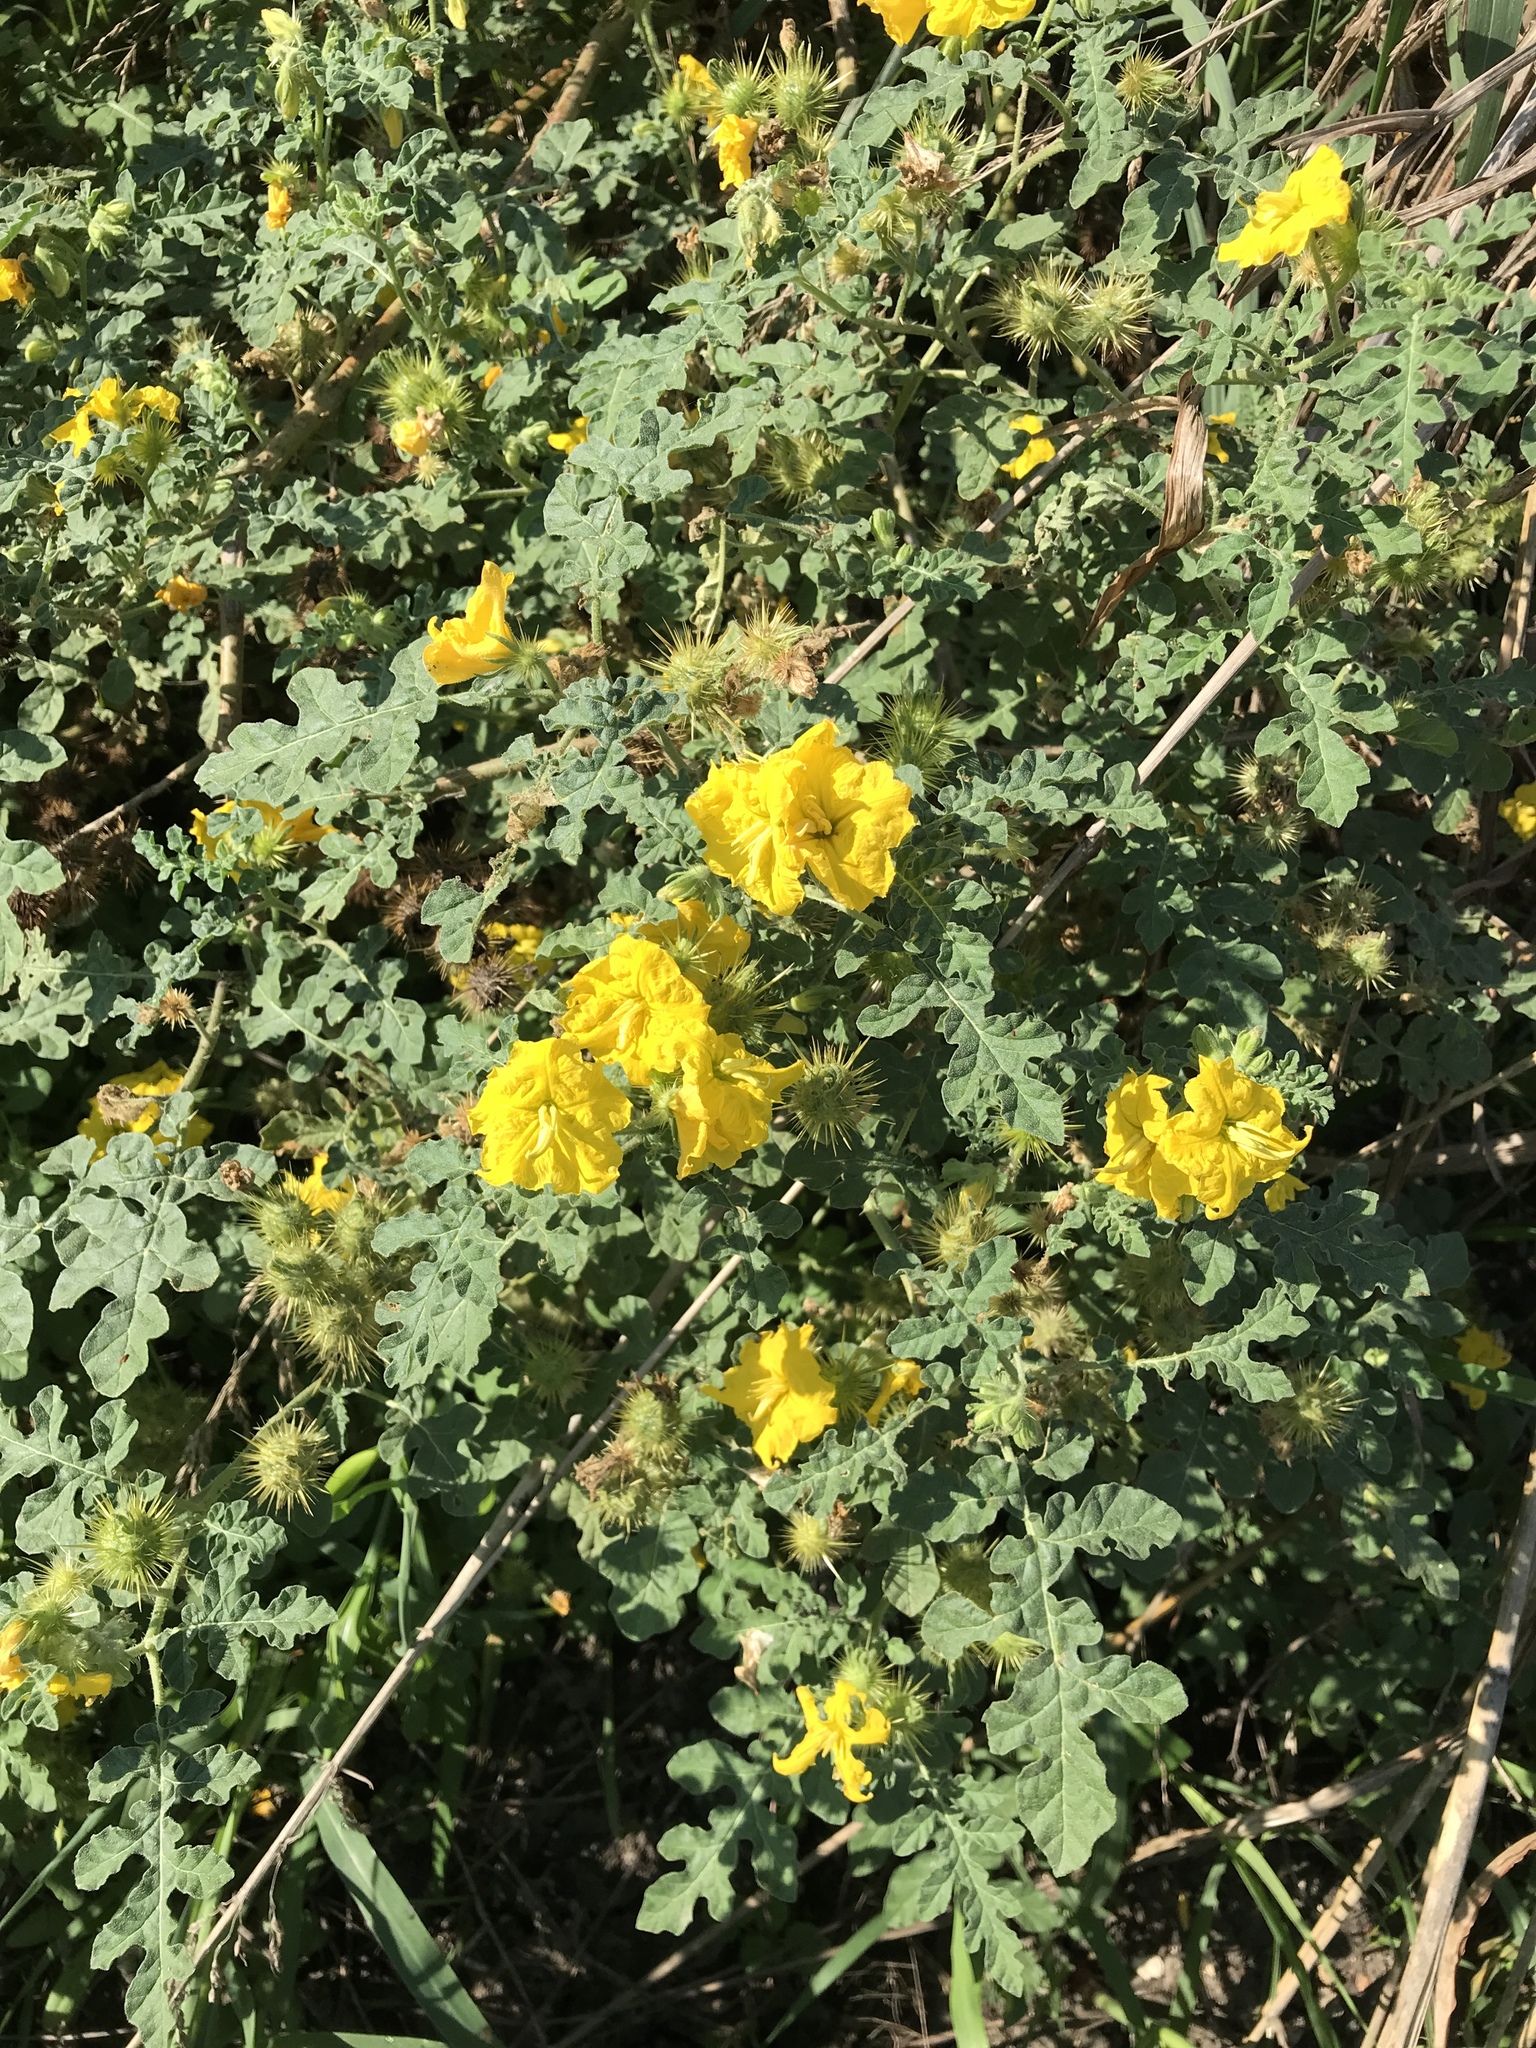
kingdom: Plantae
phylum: Tracheophyta
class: Magnoliopsida
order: Solanales
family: Solanaceae
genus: Solanum
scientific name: Solanum angustifolium
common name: Buffalobur nightshade
